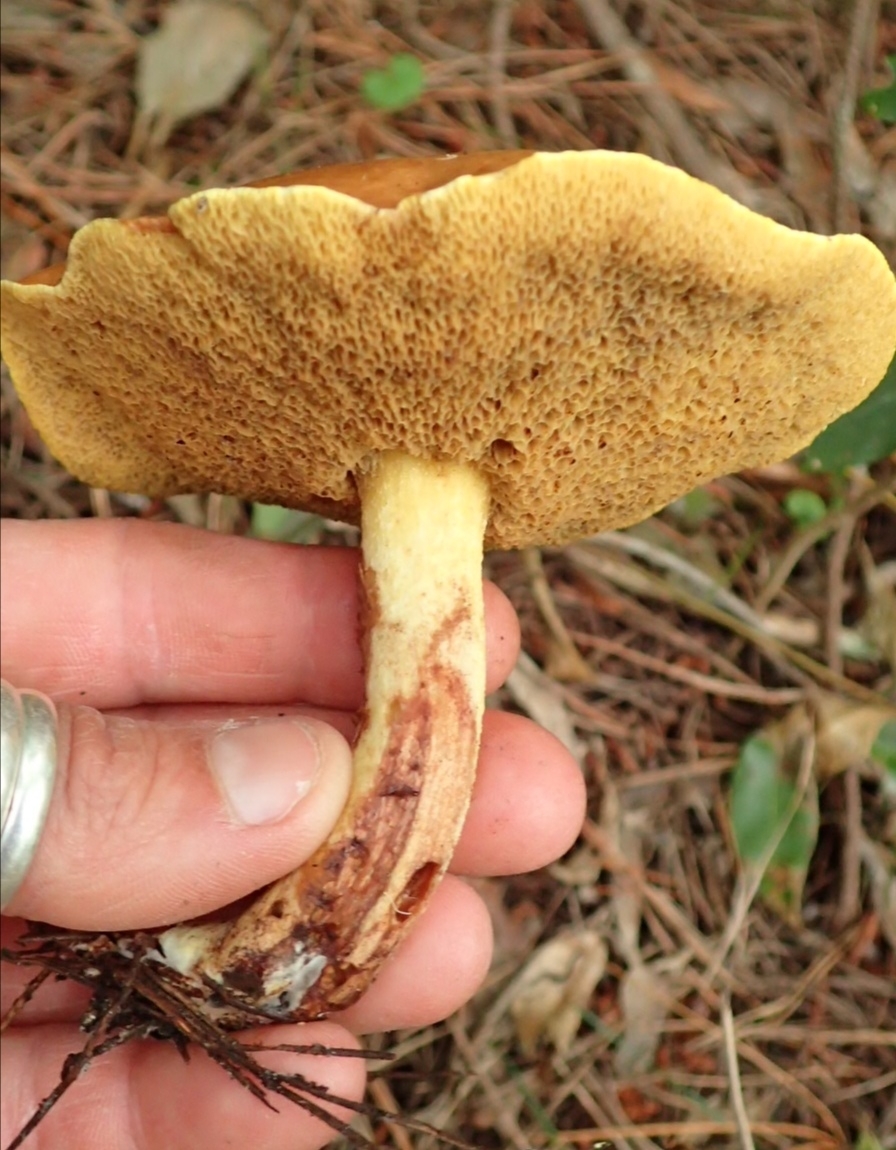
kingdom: Fungi
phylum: Basidiomycota
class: Agaricomycetes
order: Boletales
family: Suillaceae
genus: Suillus
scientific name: Suillus granulatus
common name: Weeping bolete
